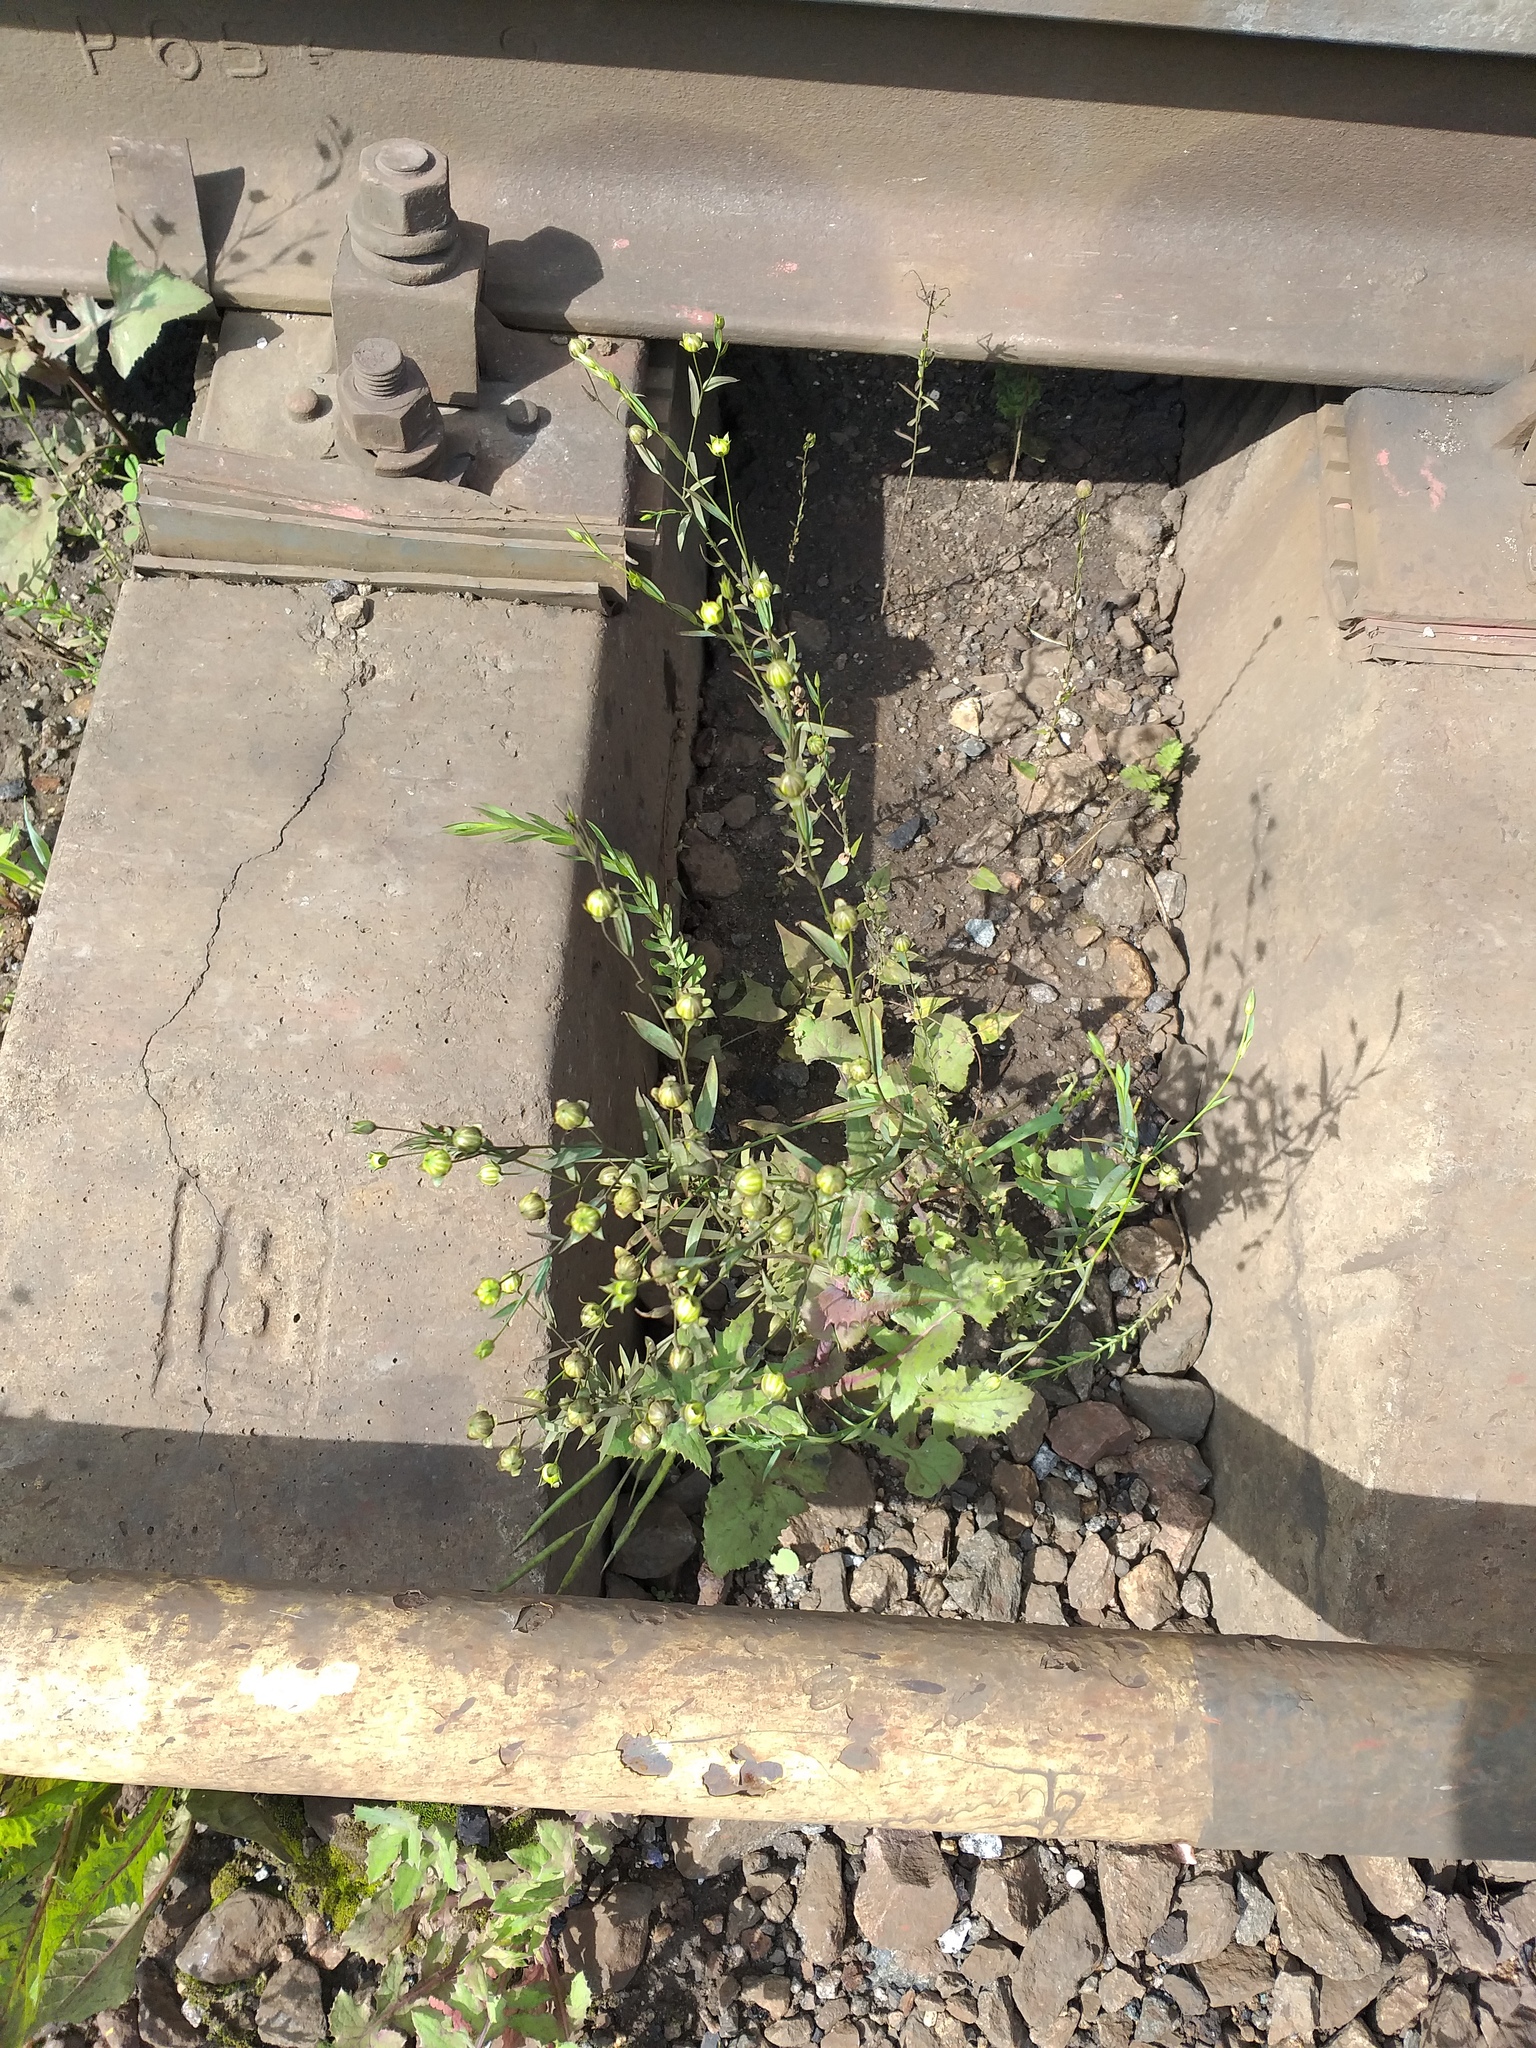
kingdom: Plantae
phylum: Tracheophyta
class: Magnoliopsida
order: Malpighiales
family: Linaceae
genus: Linum
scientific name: Linum usitatissimum
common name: Flax
